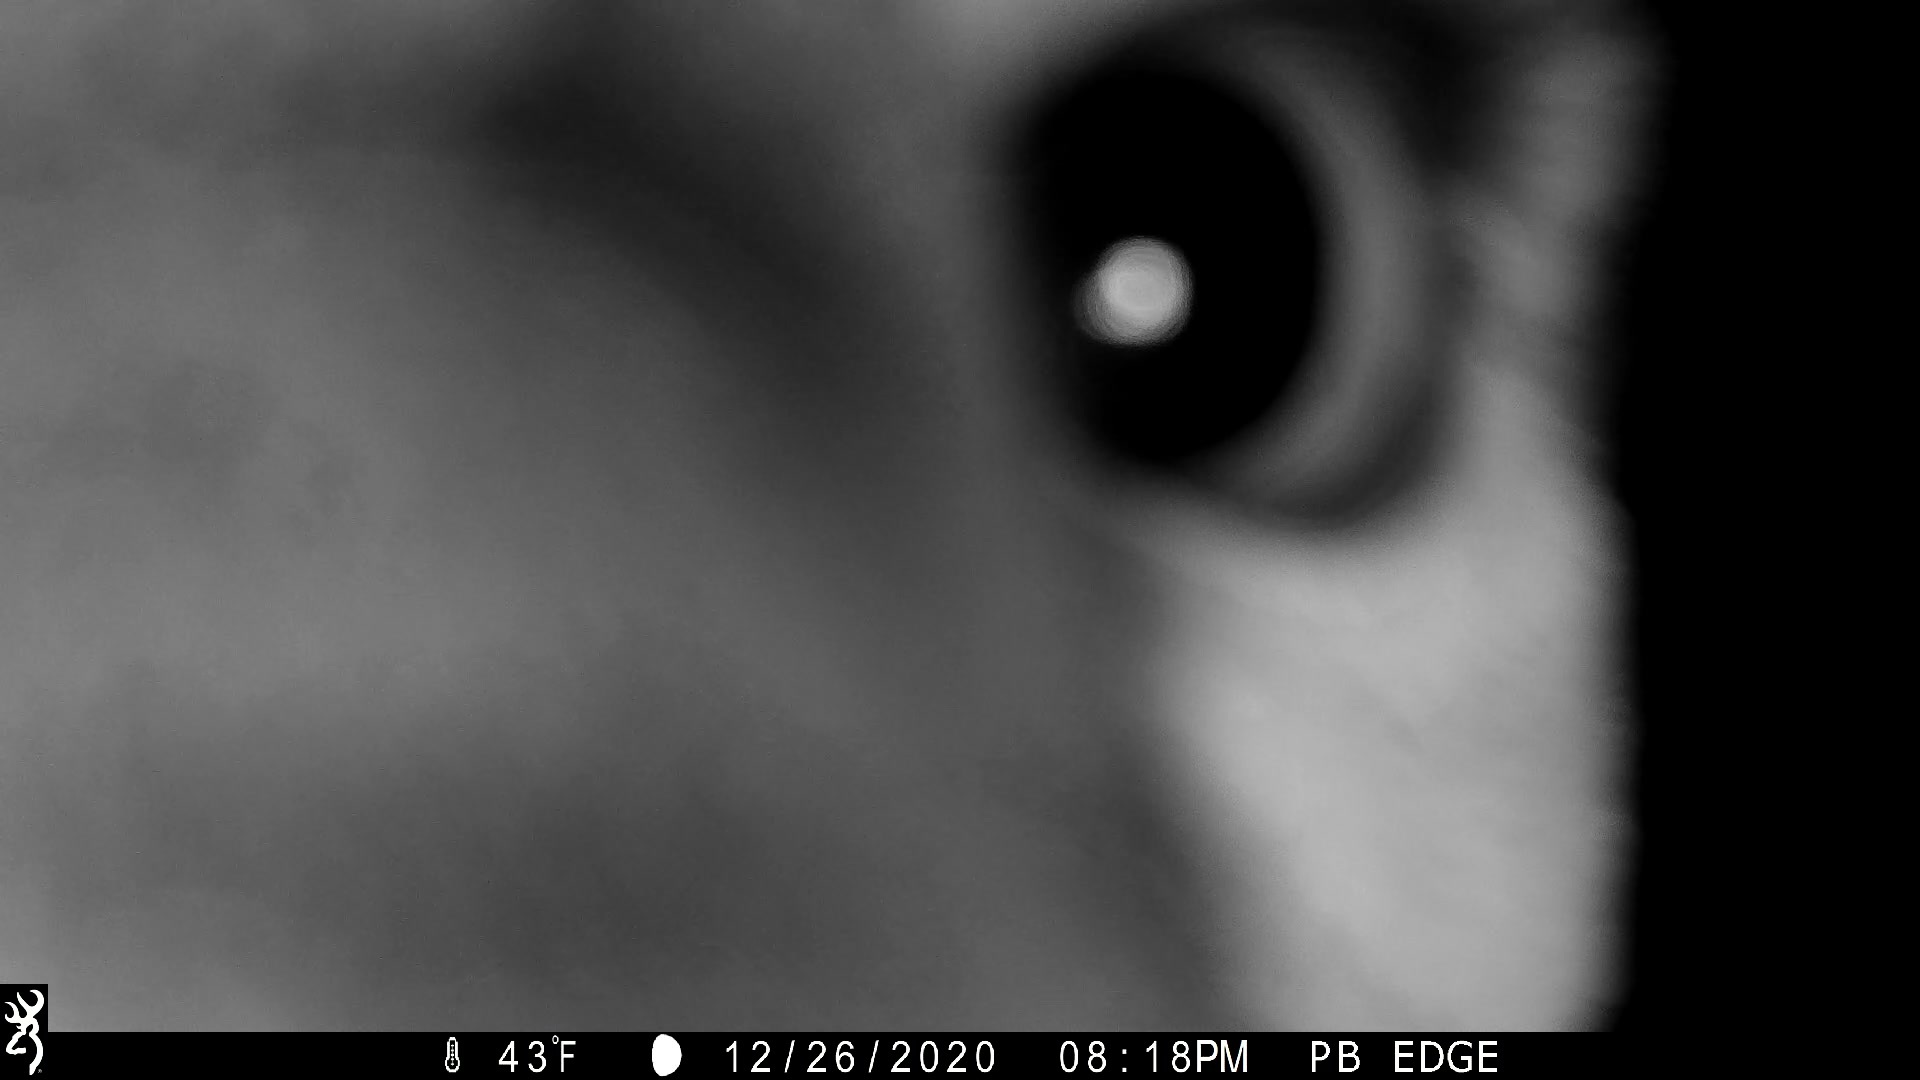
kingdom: Animalia
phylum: Chordata
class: Mammalia
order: Carnivora
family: Felidae
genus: Puma
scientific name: Puma concolor
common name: Puma
